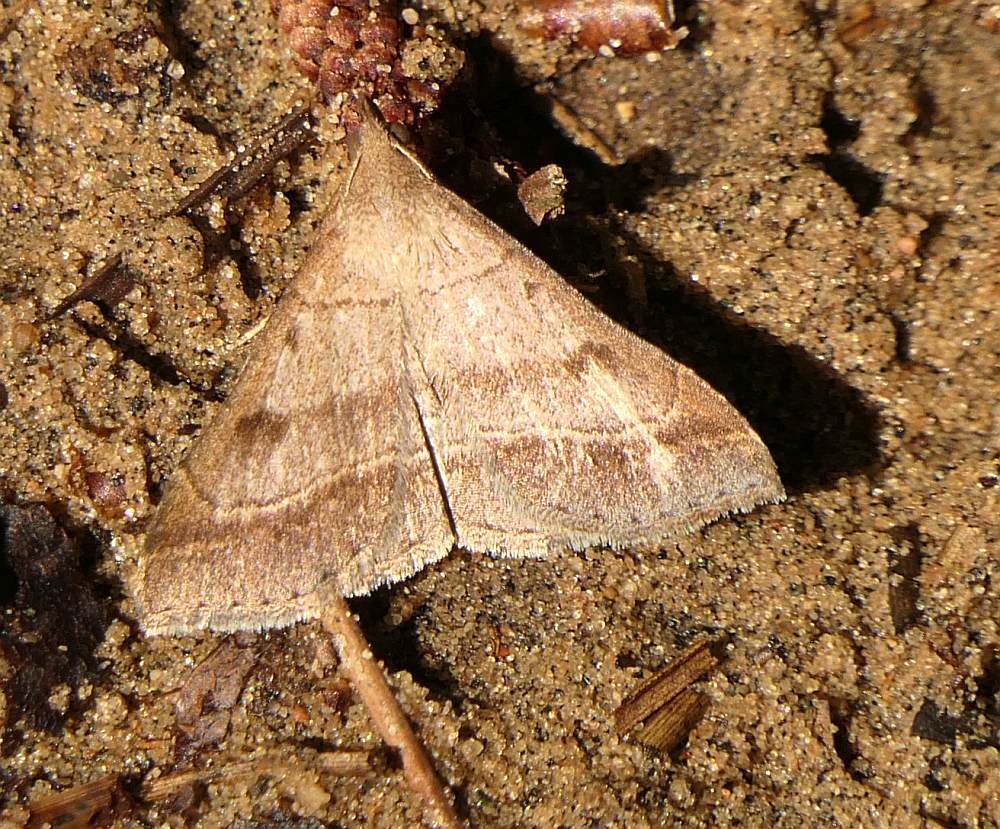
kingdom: Animalia
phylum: Arthropoda
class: Insecta
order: Lepidoptera
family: Erebidae
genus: Renia
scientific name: Renia flavipunctalis
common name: Yellow-spotted renia moth
